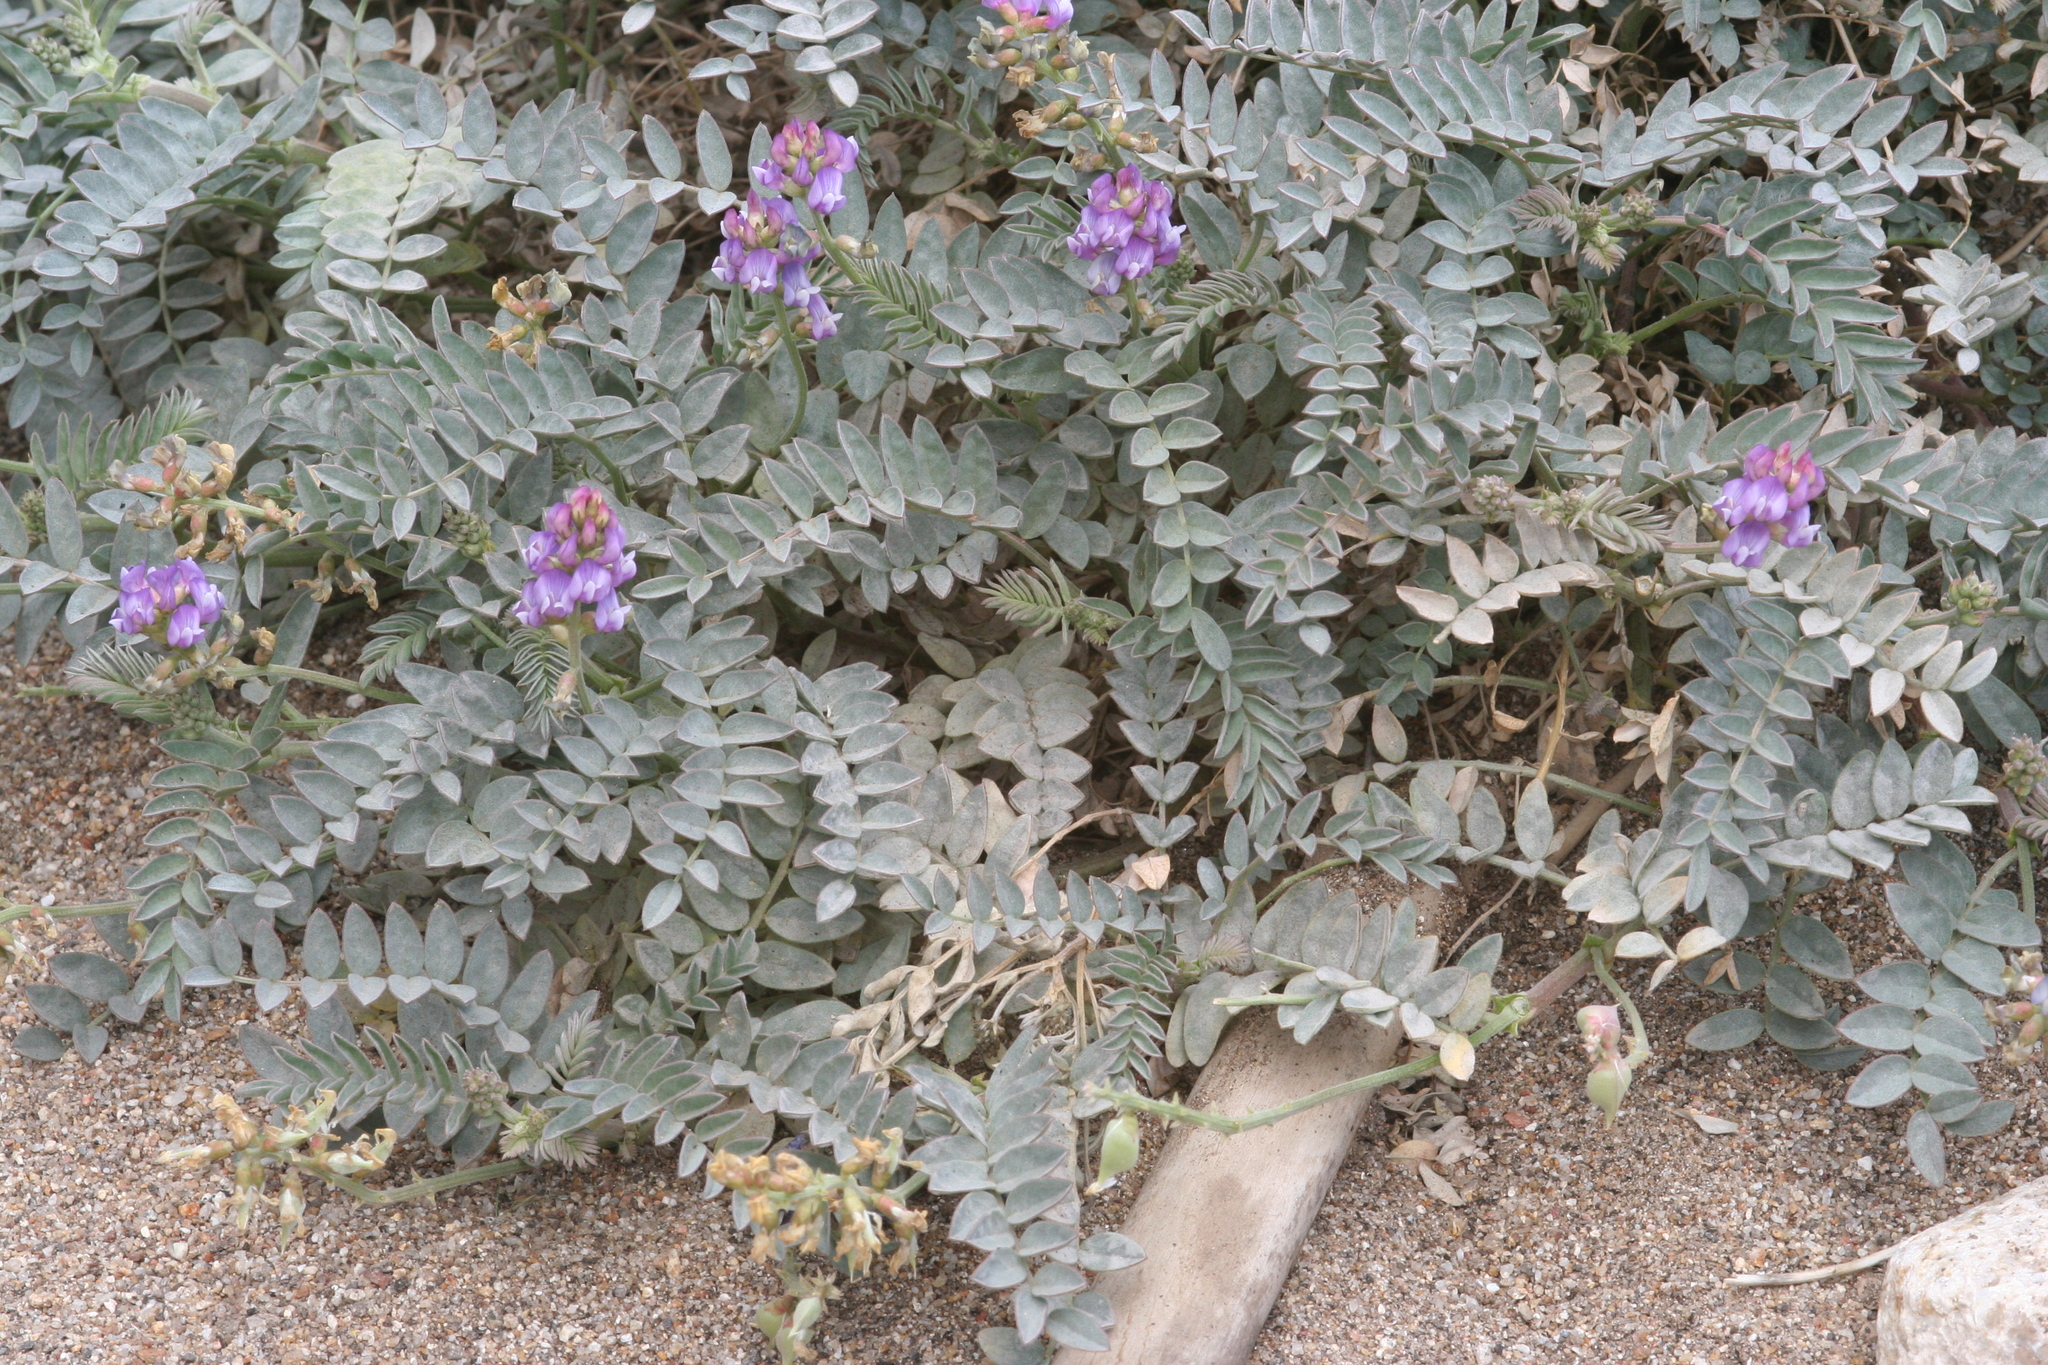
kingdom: Plantae
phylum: Tracheophyta
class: Magnoliopsida
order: Fabales
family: Fabaceae
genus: Astragalus
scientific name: Astragalus palmeri
